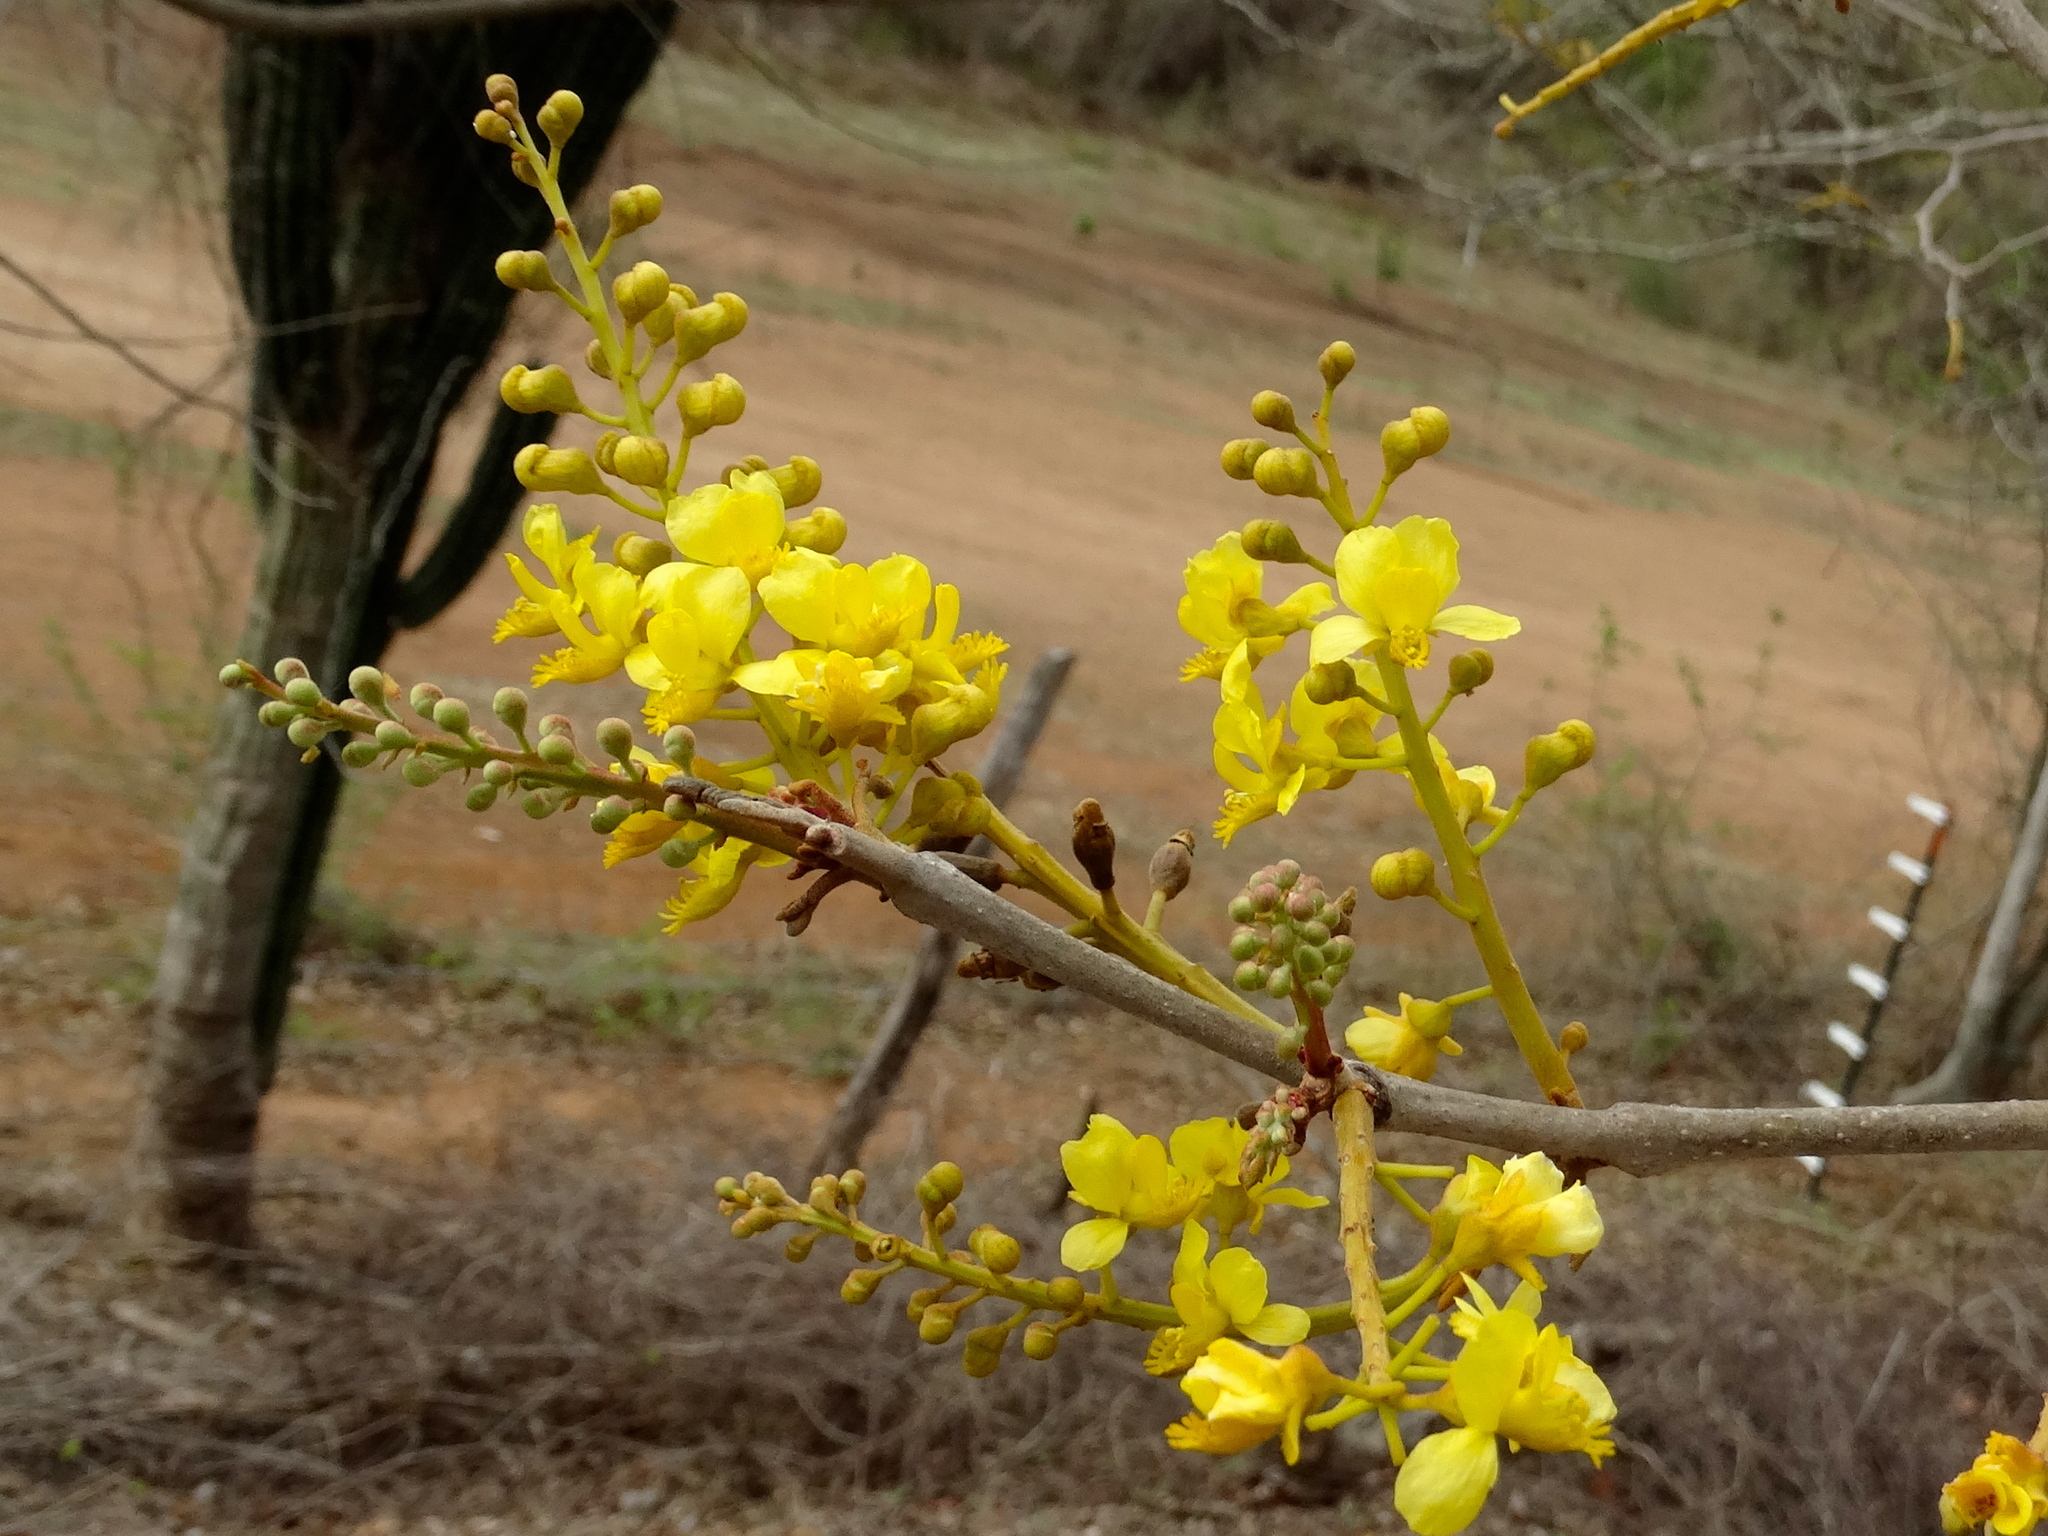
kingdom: Plantae
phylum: Tracheophyta
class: Magnoliopsida
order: Fabales
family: Fabaceae
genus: Coulteria
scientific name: Coulteria platyloba
